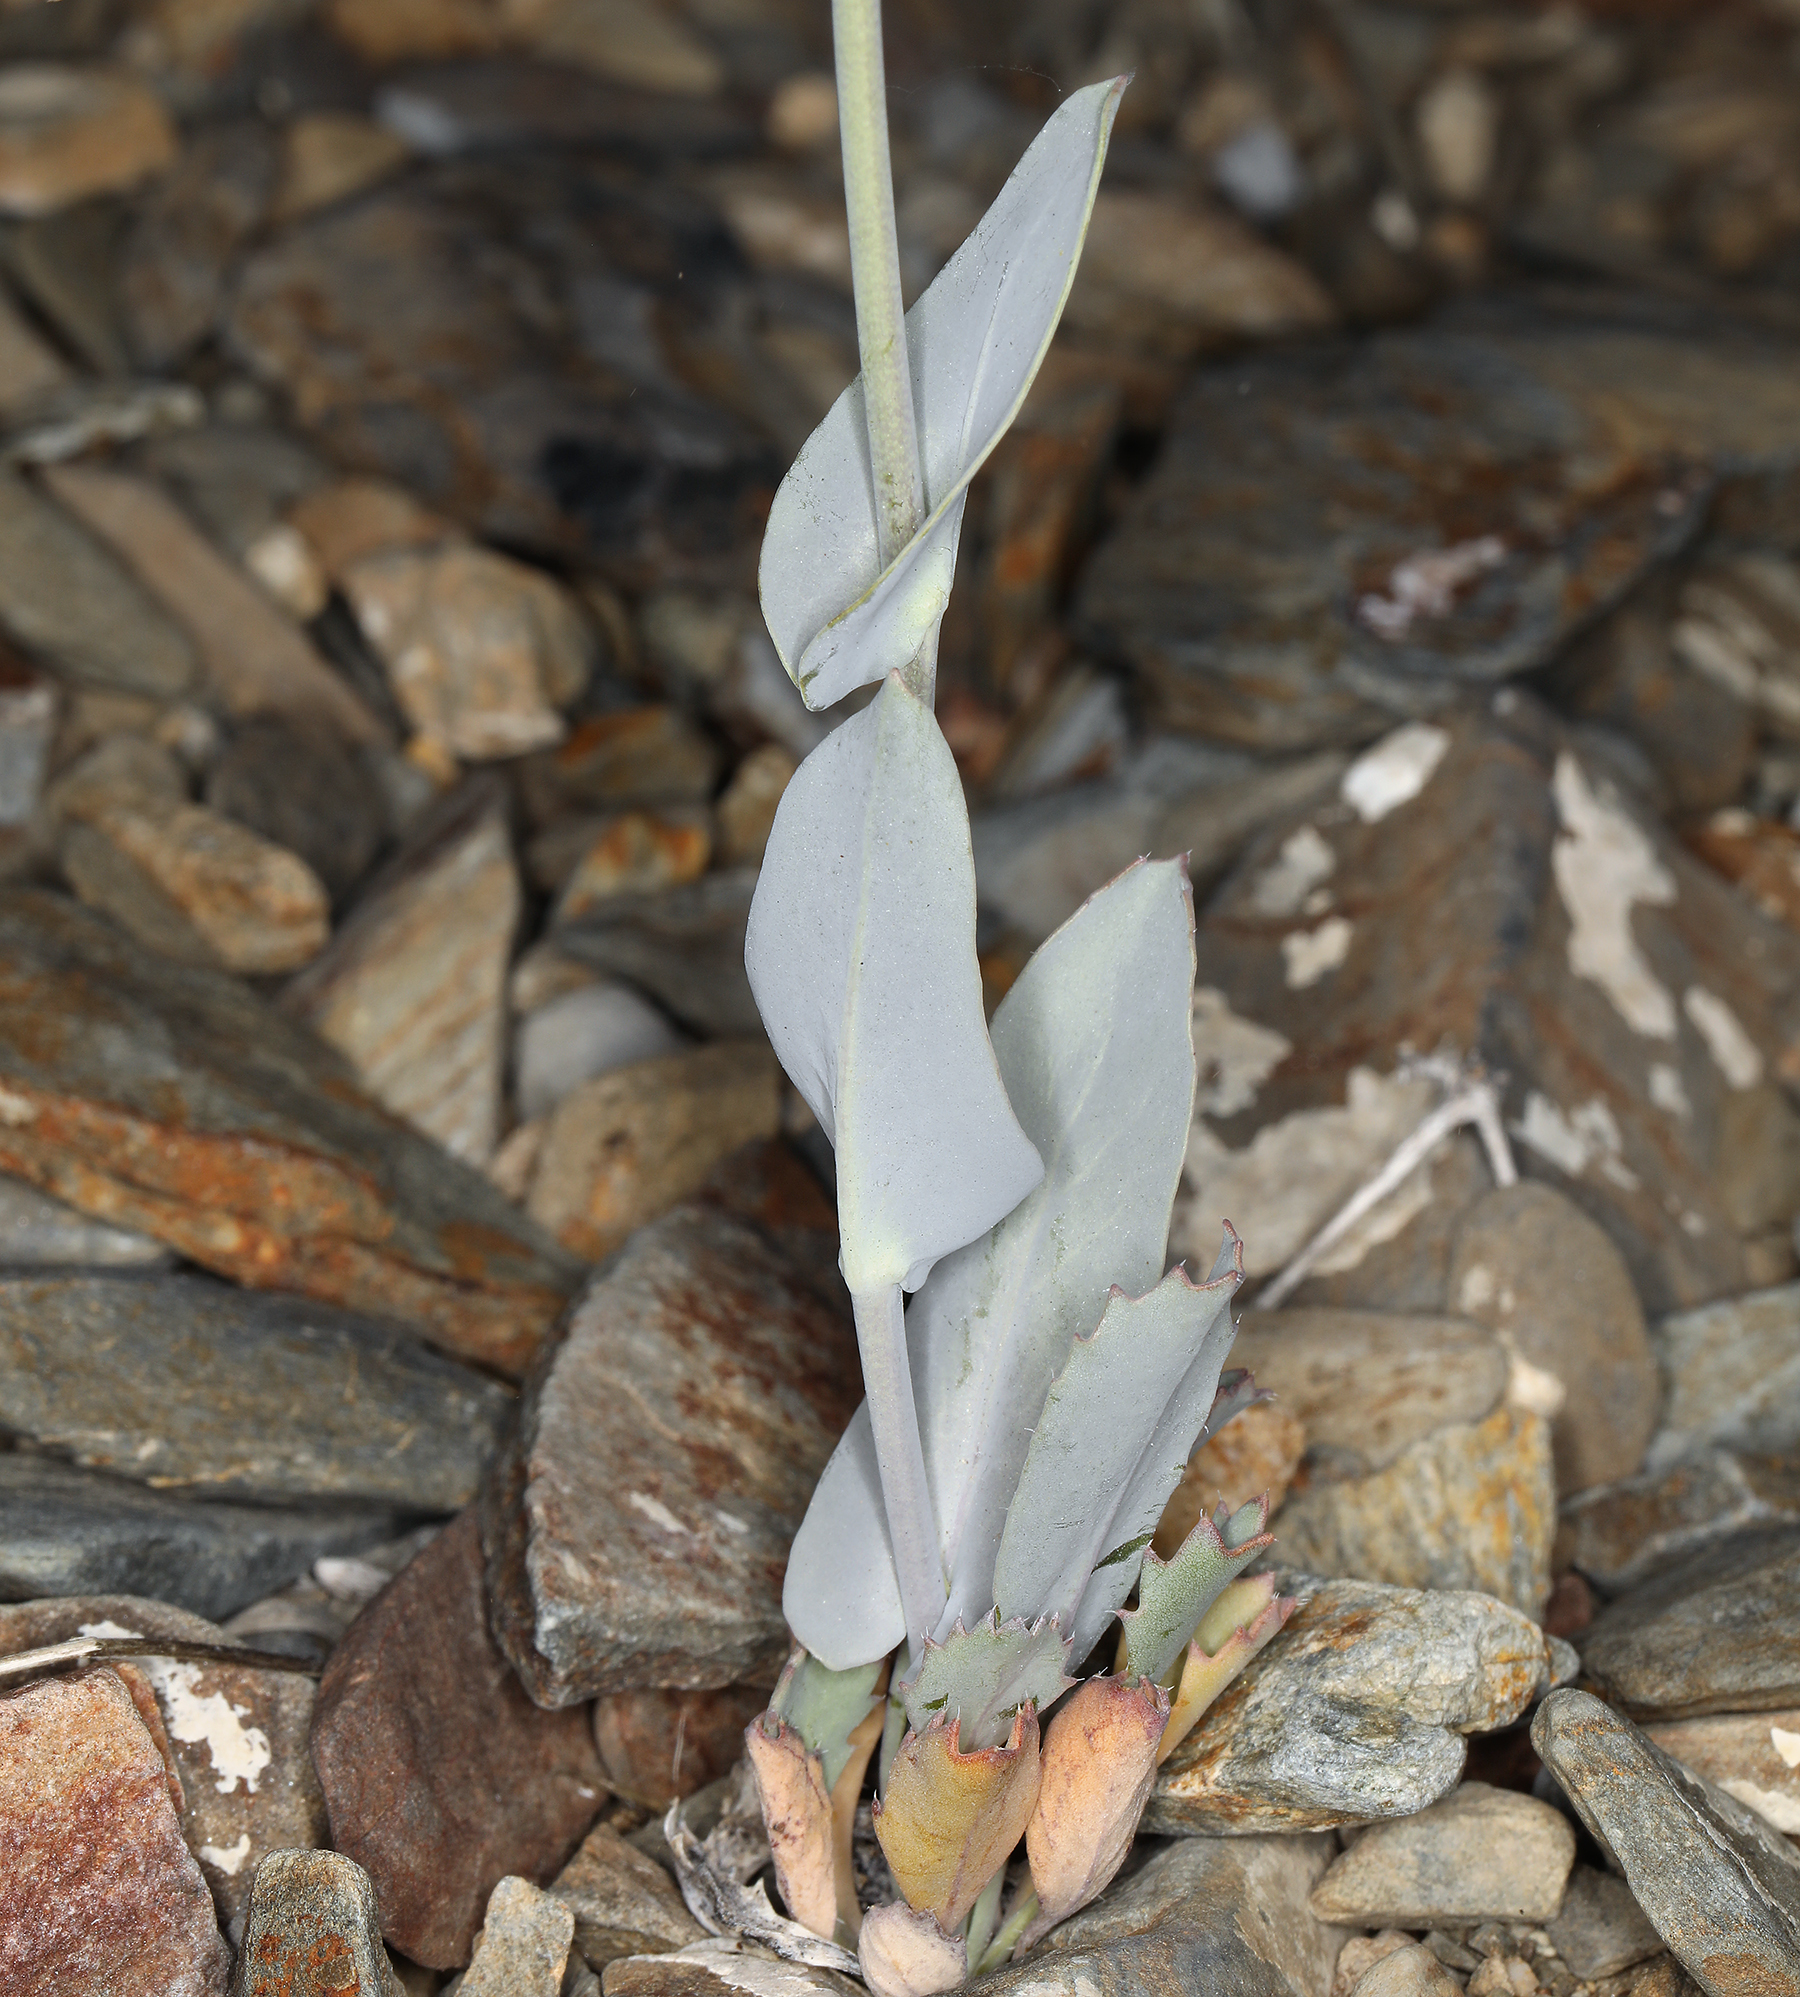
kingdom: Plantae
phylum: Tracheophyta
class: Magnoliopsida
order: Brassicales
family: Brassicaceae
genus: Streptanthus
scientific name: Streptanthus cordatus
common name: Heart-leaf jewel-flower
